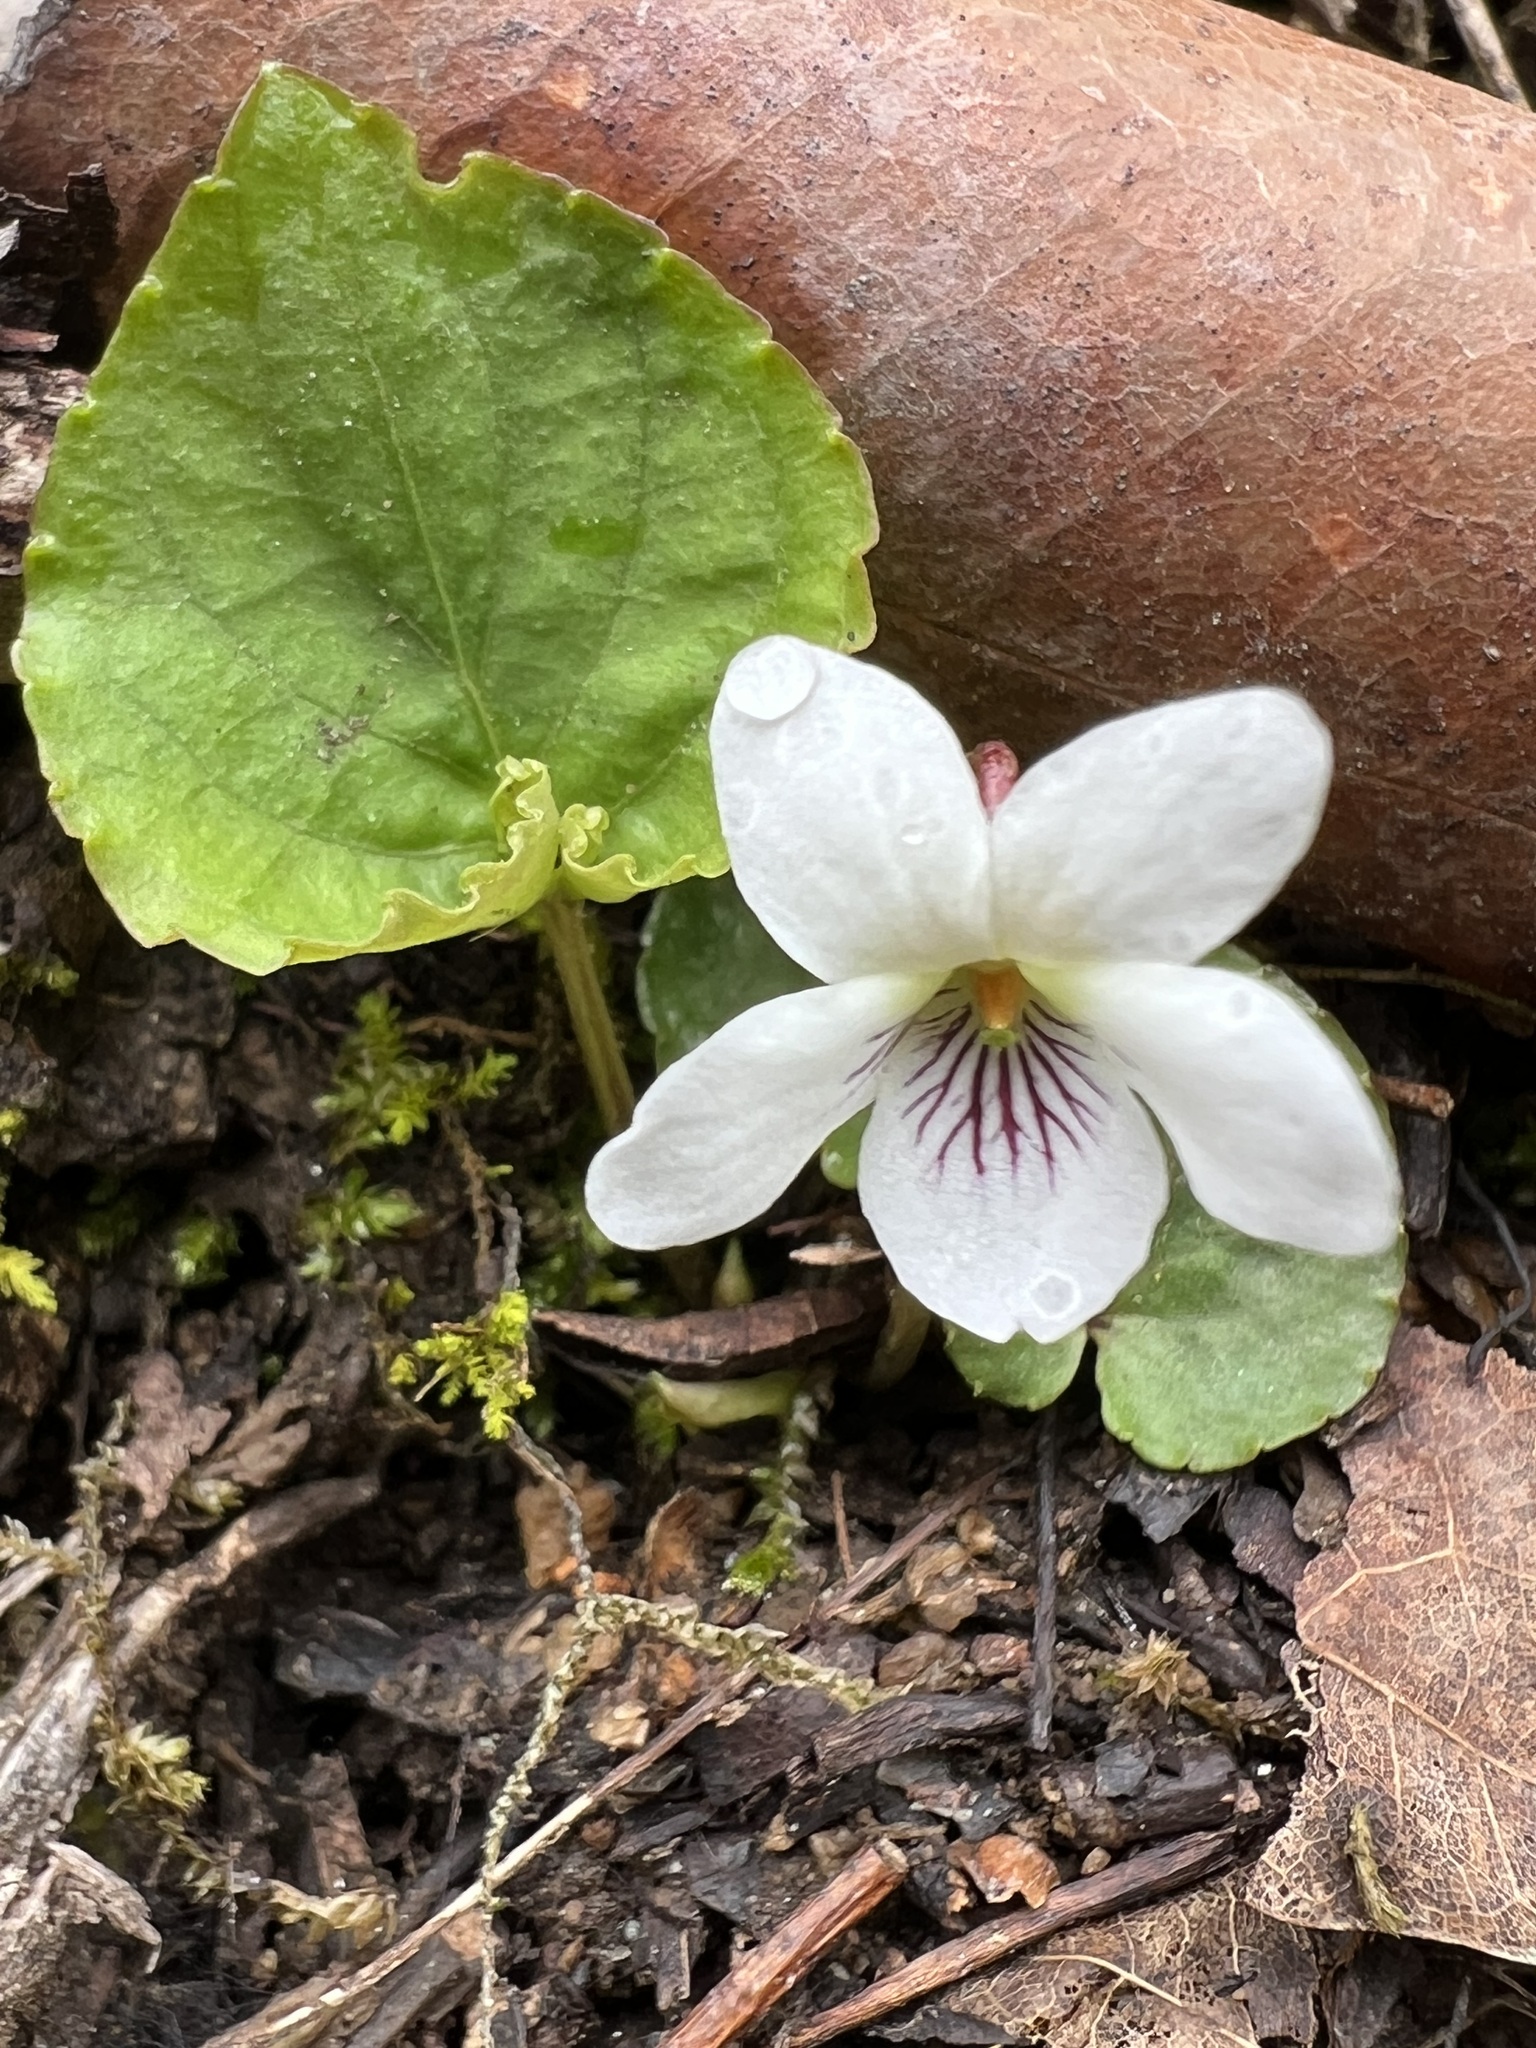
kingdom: Plantae
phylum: Tracheophyta
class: Magnoliopsida
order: Malpighiales
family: Violaceae
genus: Viola
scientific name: Viola blanda
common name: Sweet white violet
